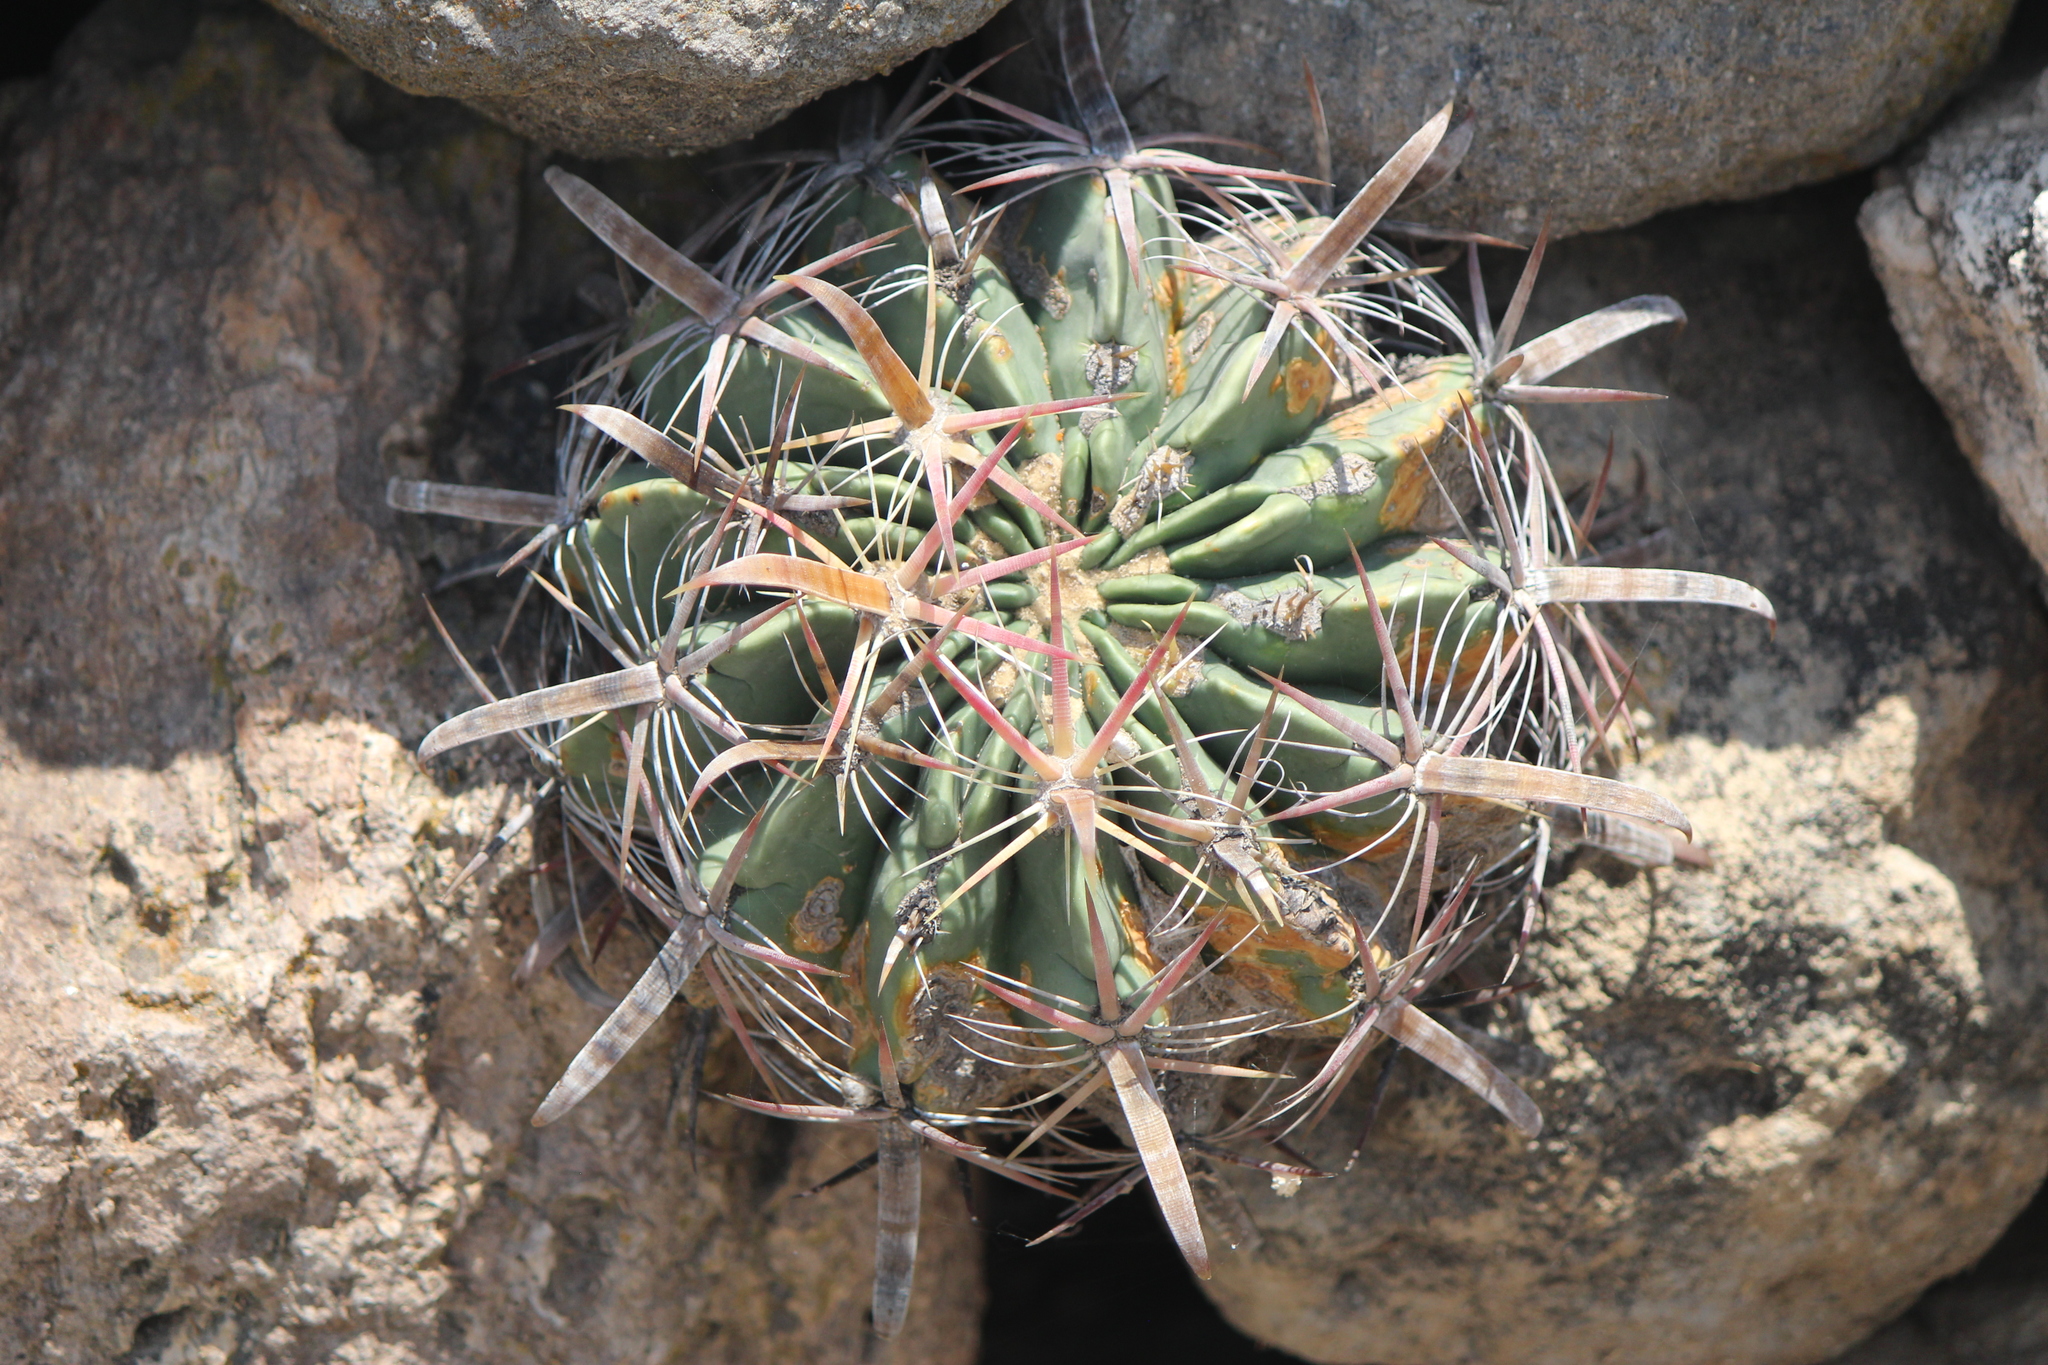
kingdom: Plantae
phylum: Tracheophyta
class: Magnoliopsida
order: Caryophyllales
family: Cactaceae
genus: Ferocactus
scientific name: Ferocactus latispinus
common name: Devil's-tongue cactus
